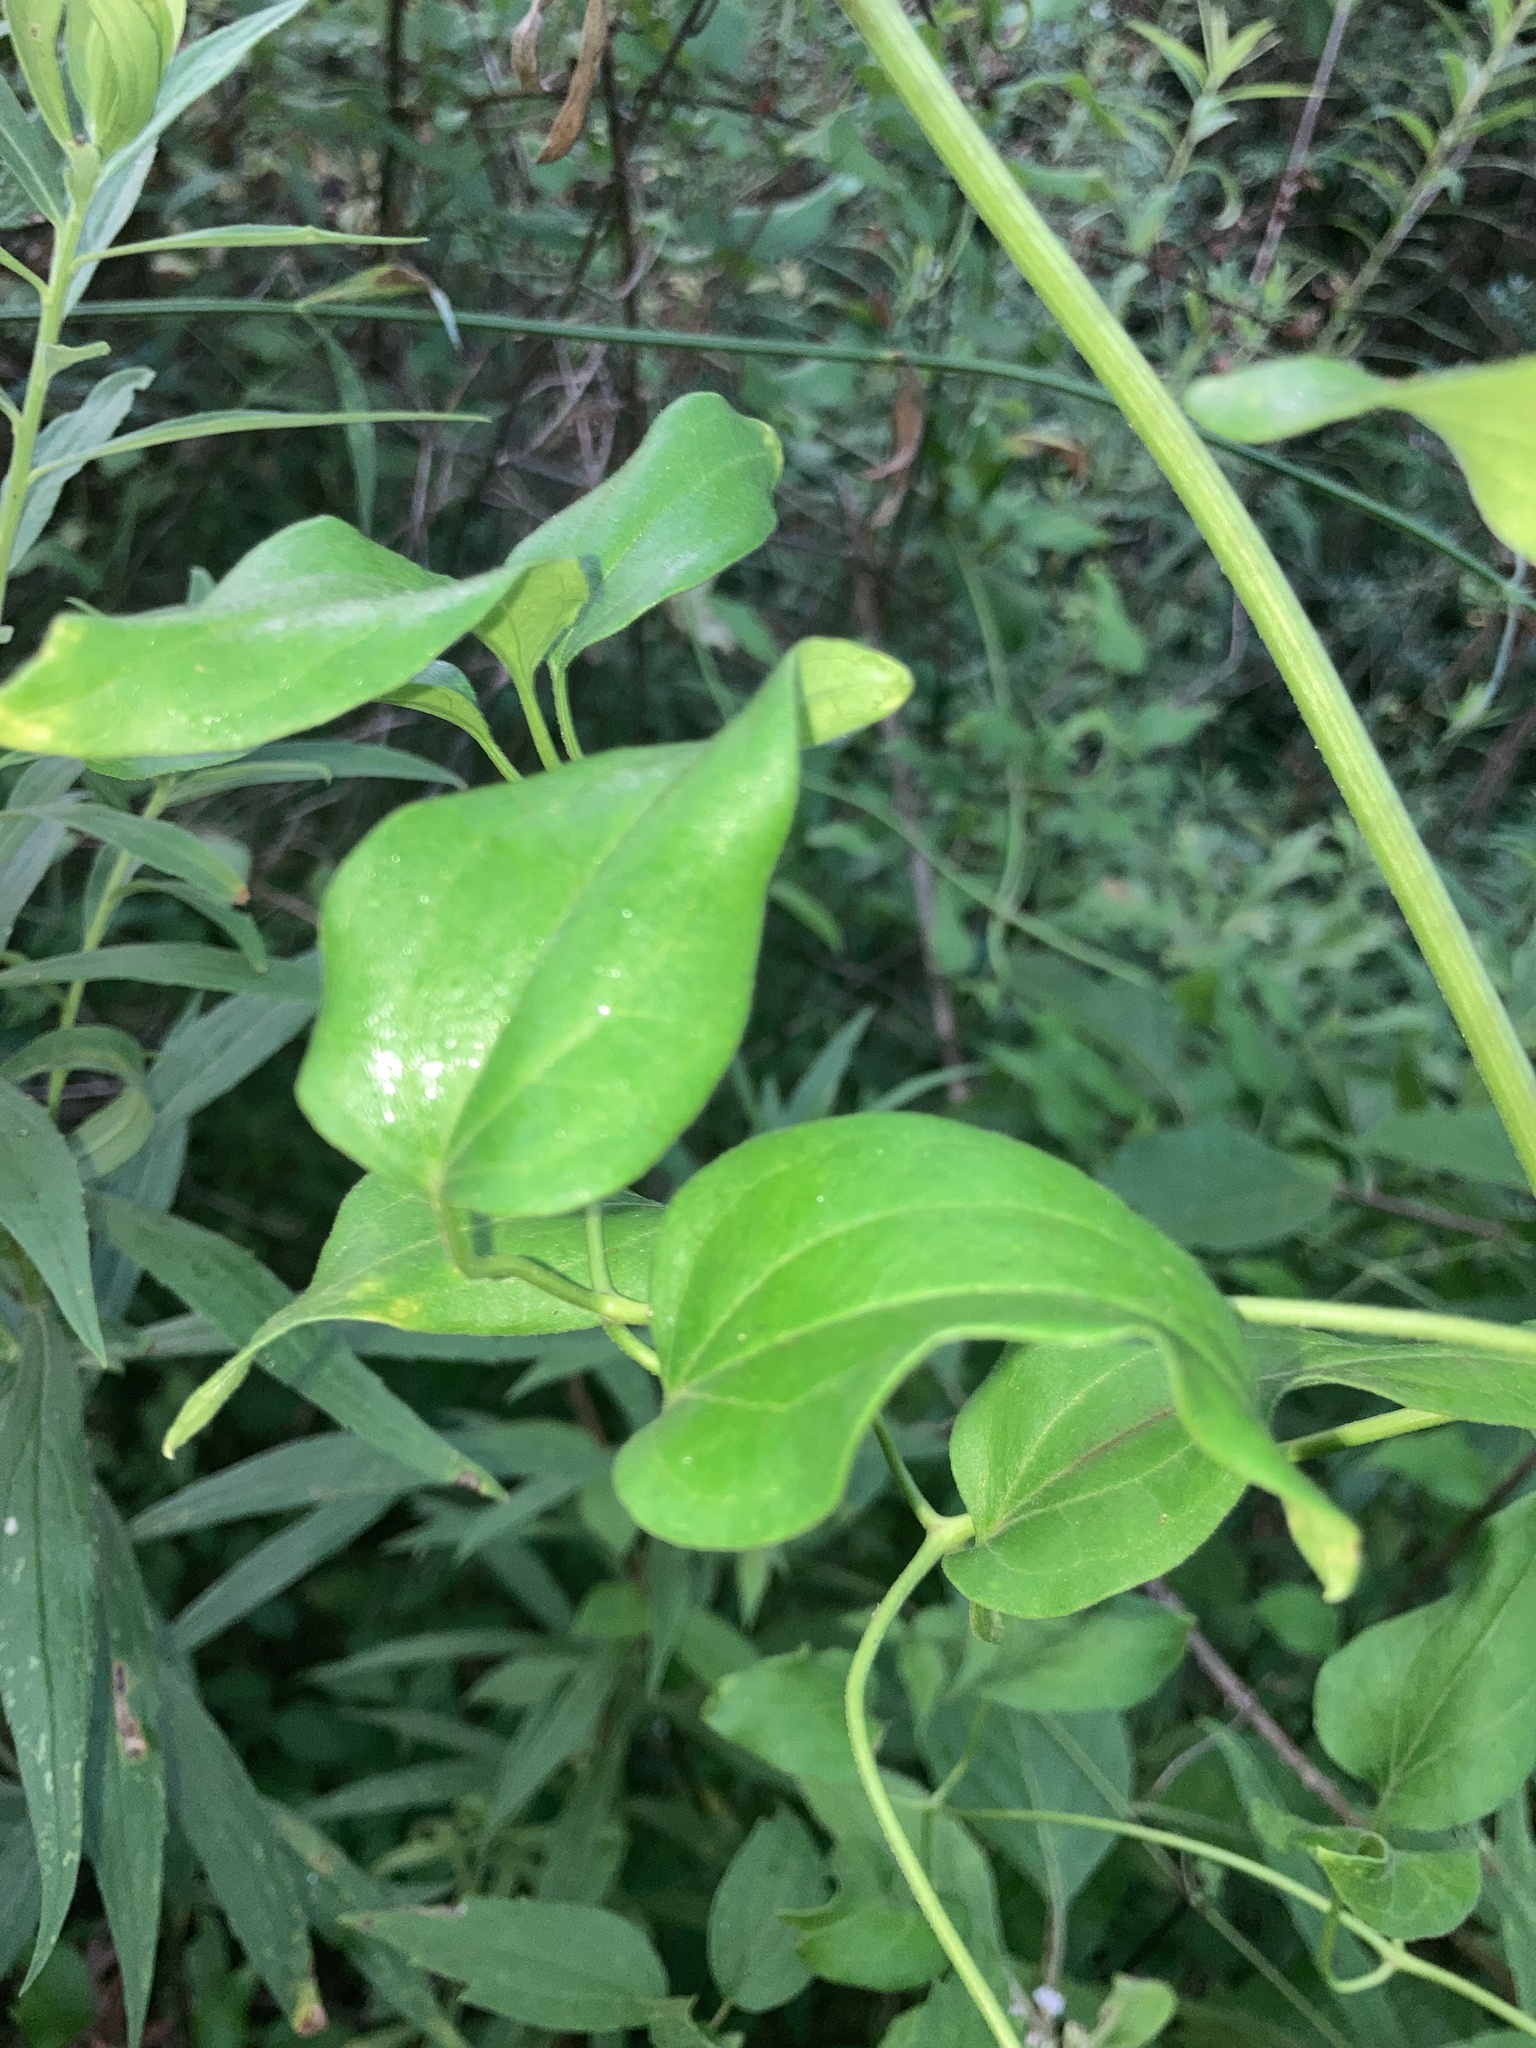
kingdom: Plantae
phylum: Tracheophyta
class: Magnoliopsida
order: Ranunculales
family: Ranunculaceae
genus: Clematis
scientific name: Clematis terniflora
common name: Sweet autumn clematis
